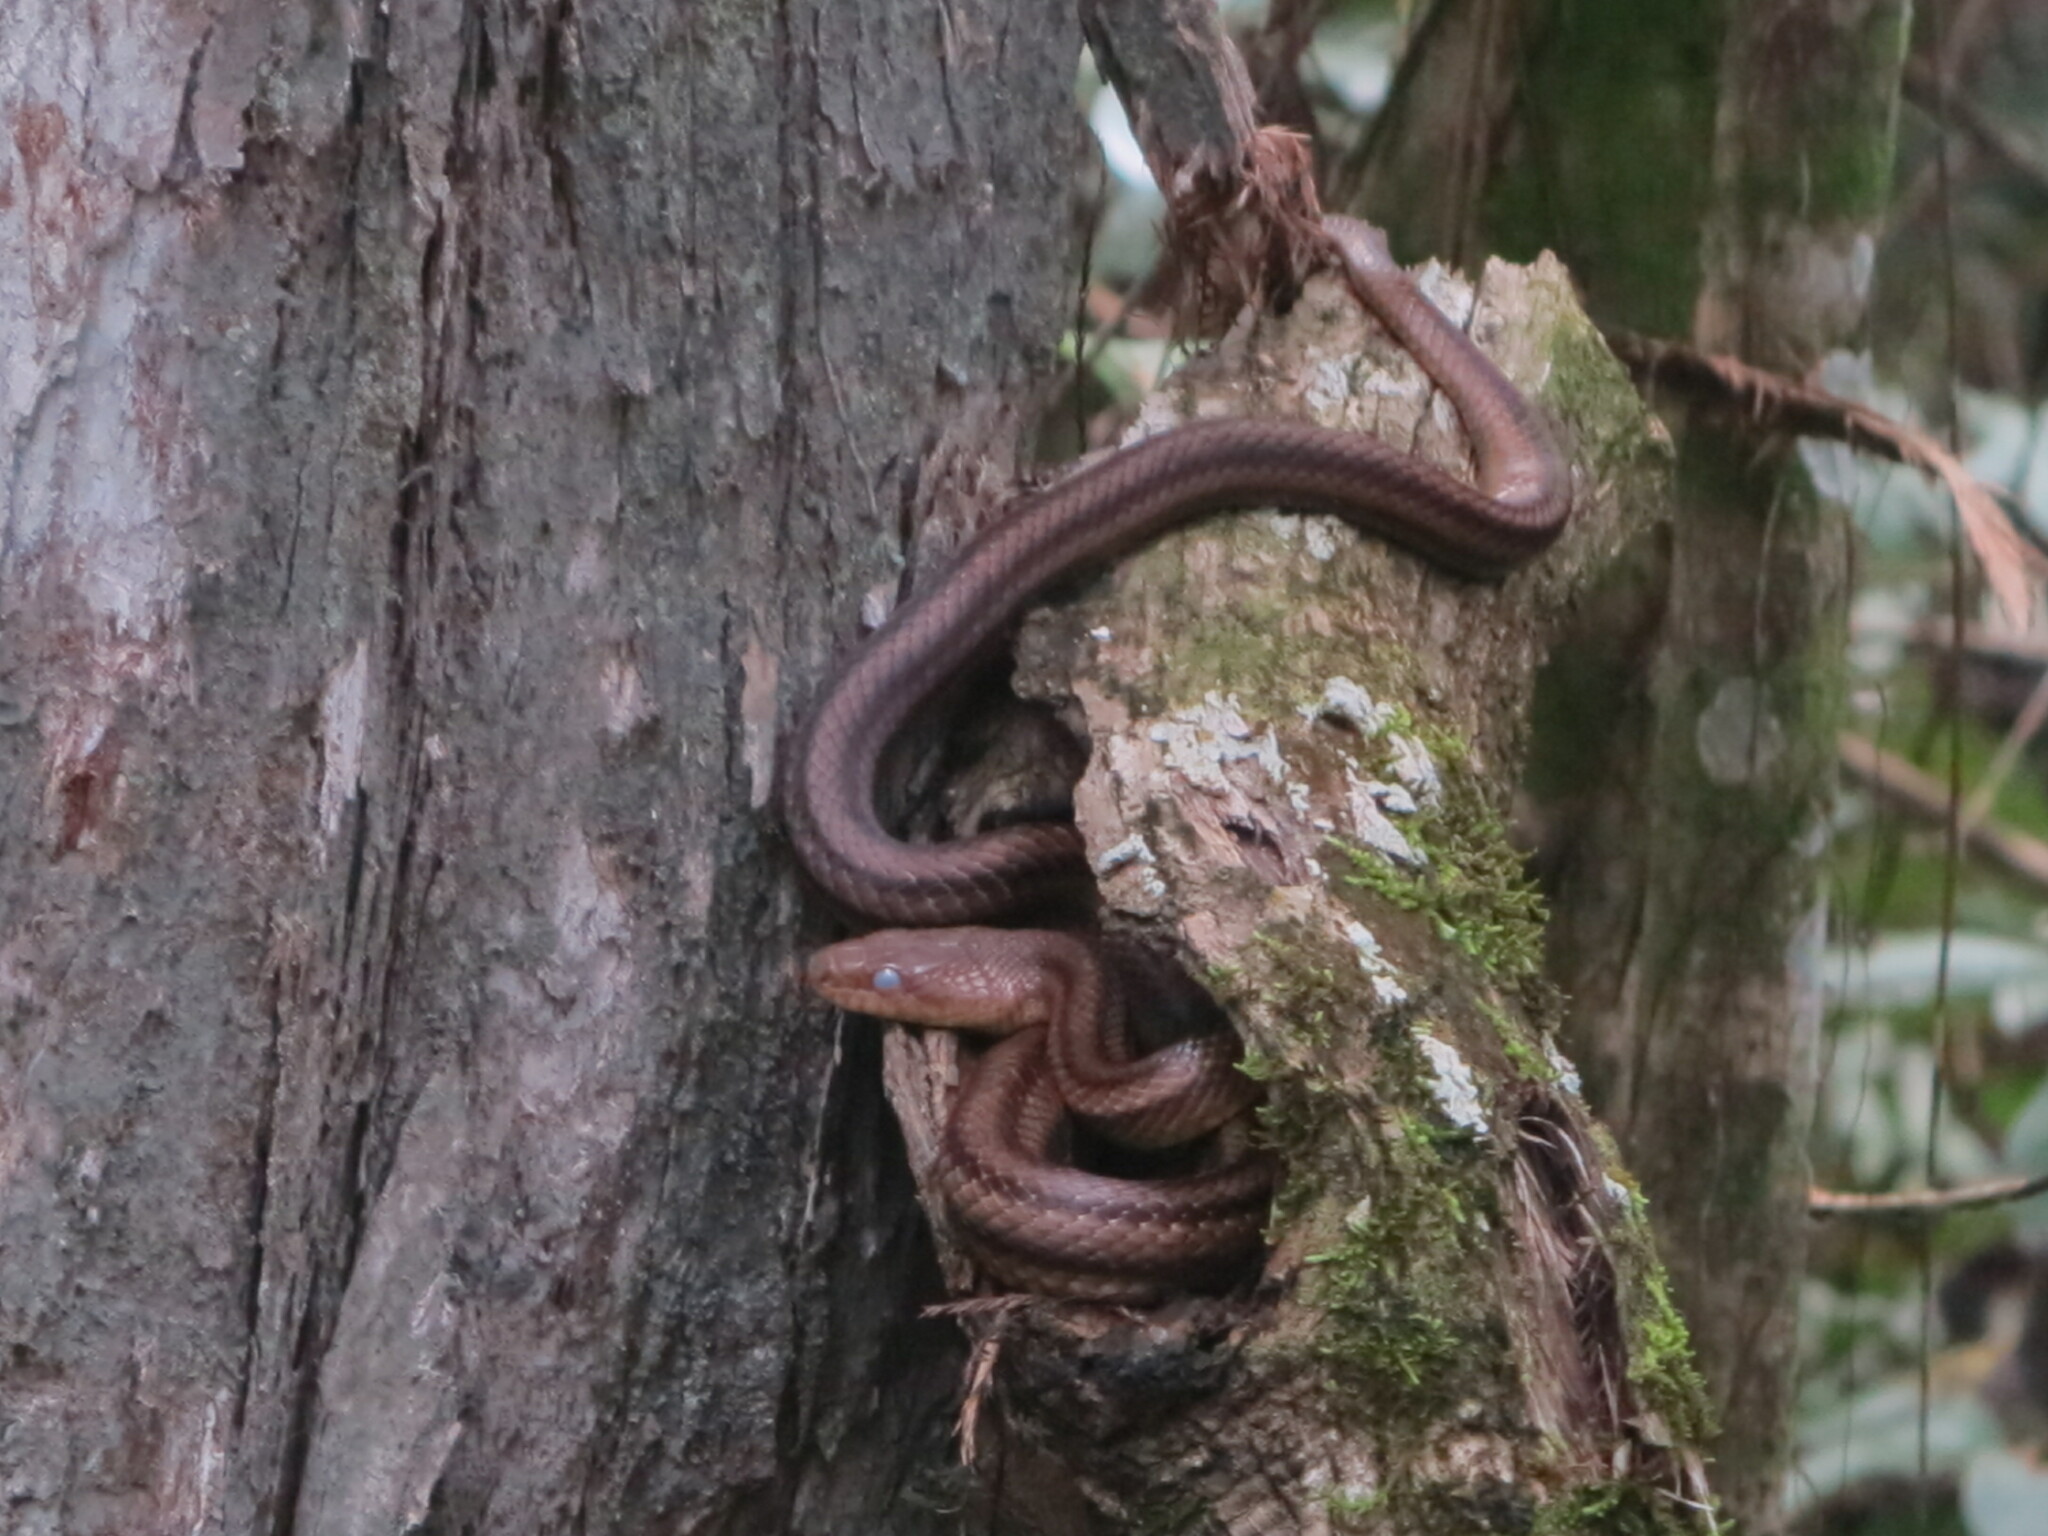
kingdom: Animalia
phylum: Chordata
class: Squamata
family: Colubridae
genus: Pantherophis
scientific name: Pantherophis alleghaniensis
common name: Eastern rat snake
